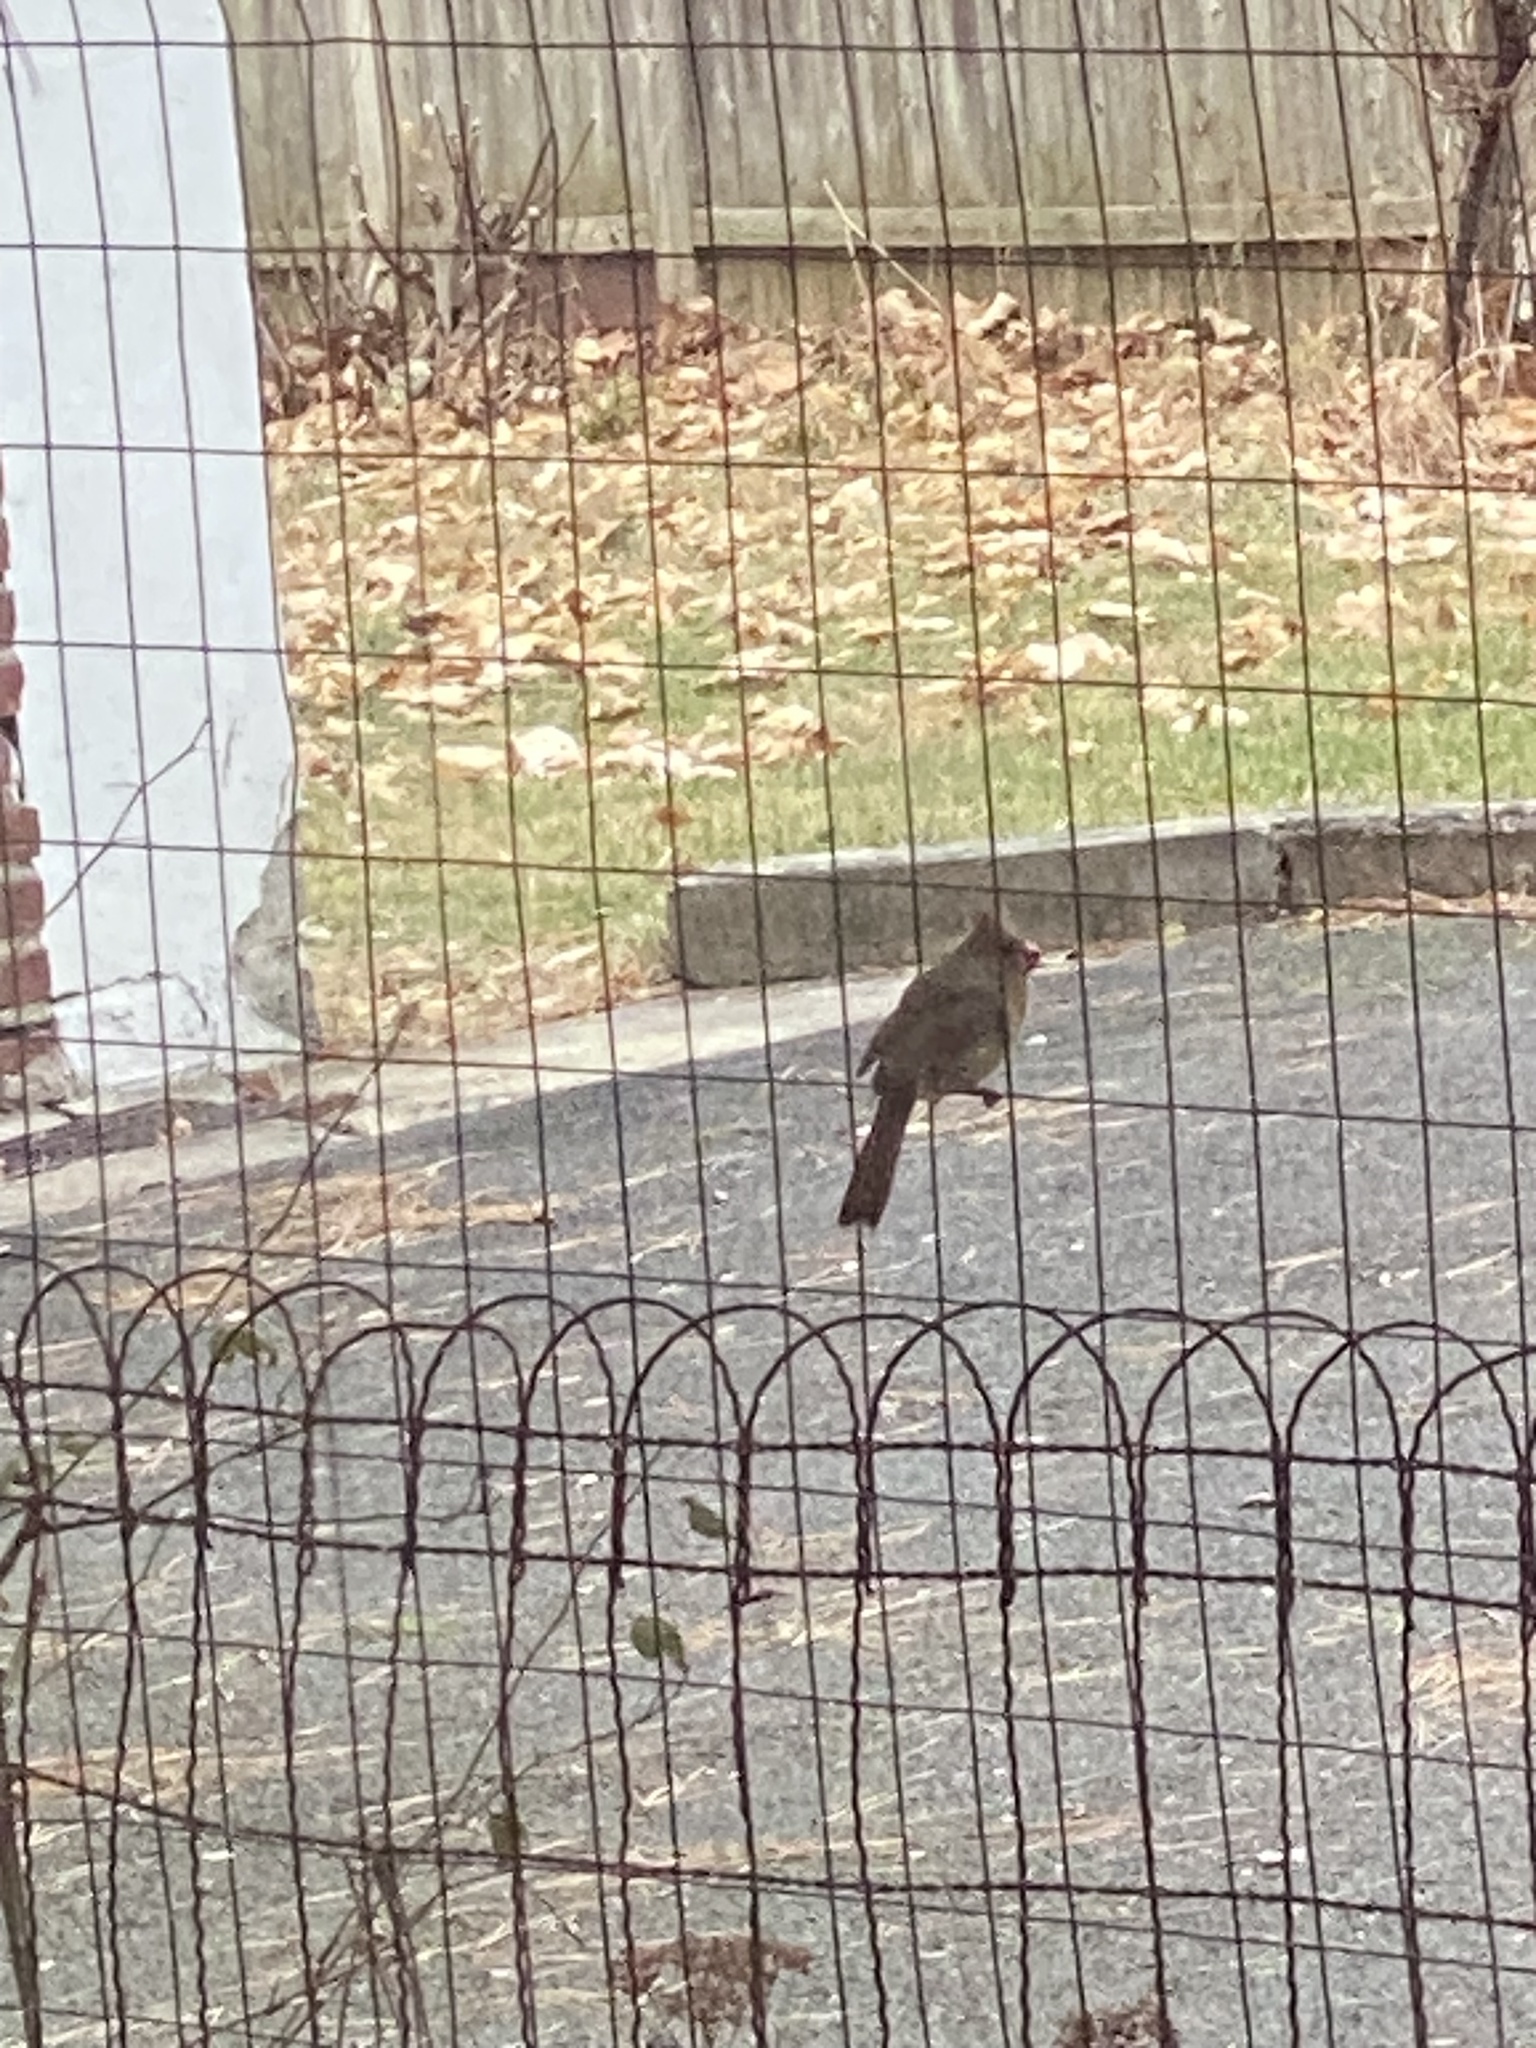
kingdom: Animalia
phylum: Chordata
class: Aves
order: Passeriformes
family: Cardinalidae
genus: Cardinalis
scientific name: Cardinalis cardinalis
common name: Northern cardinal
